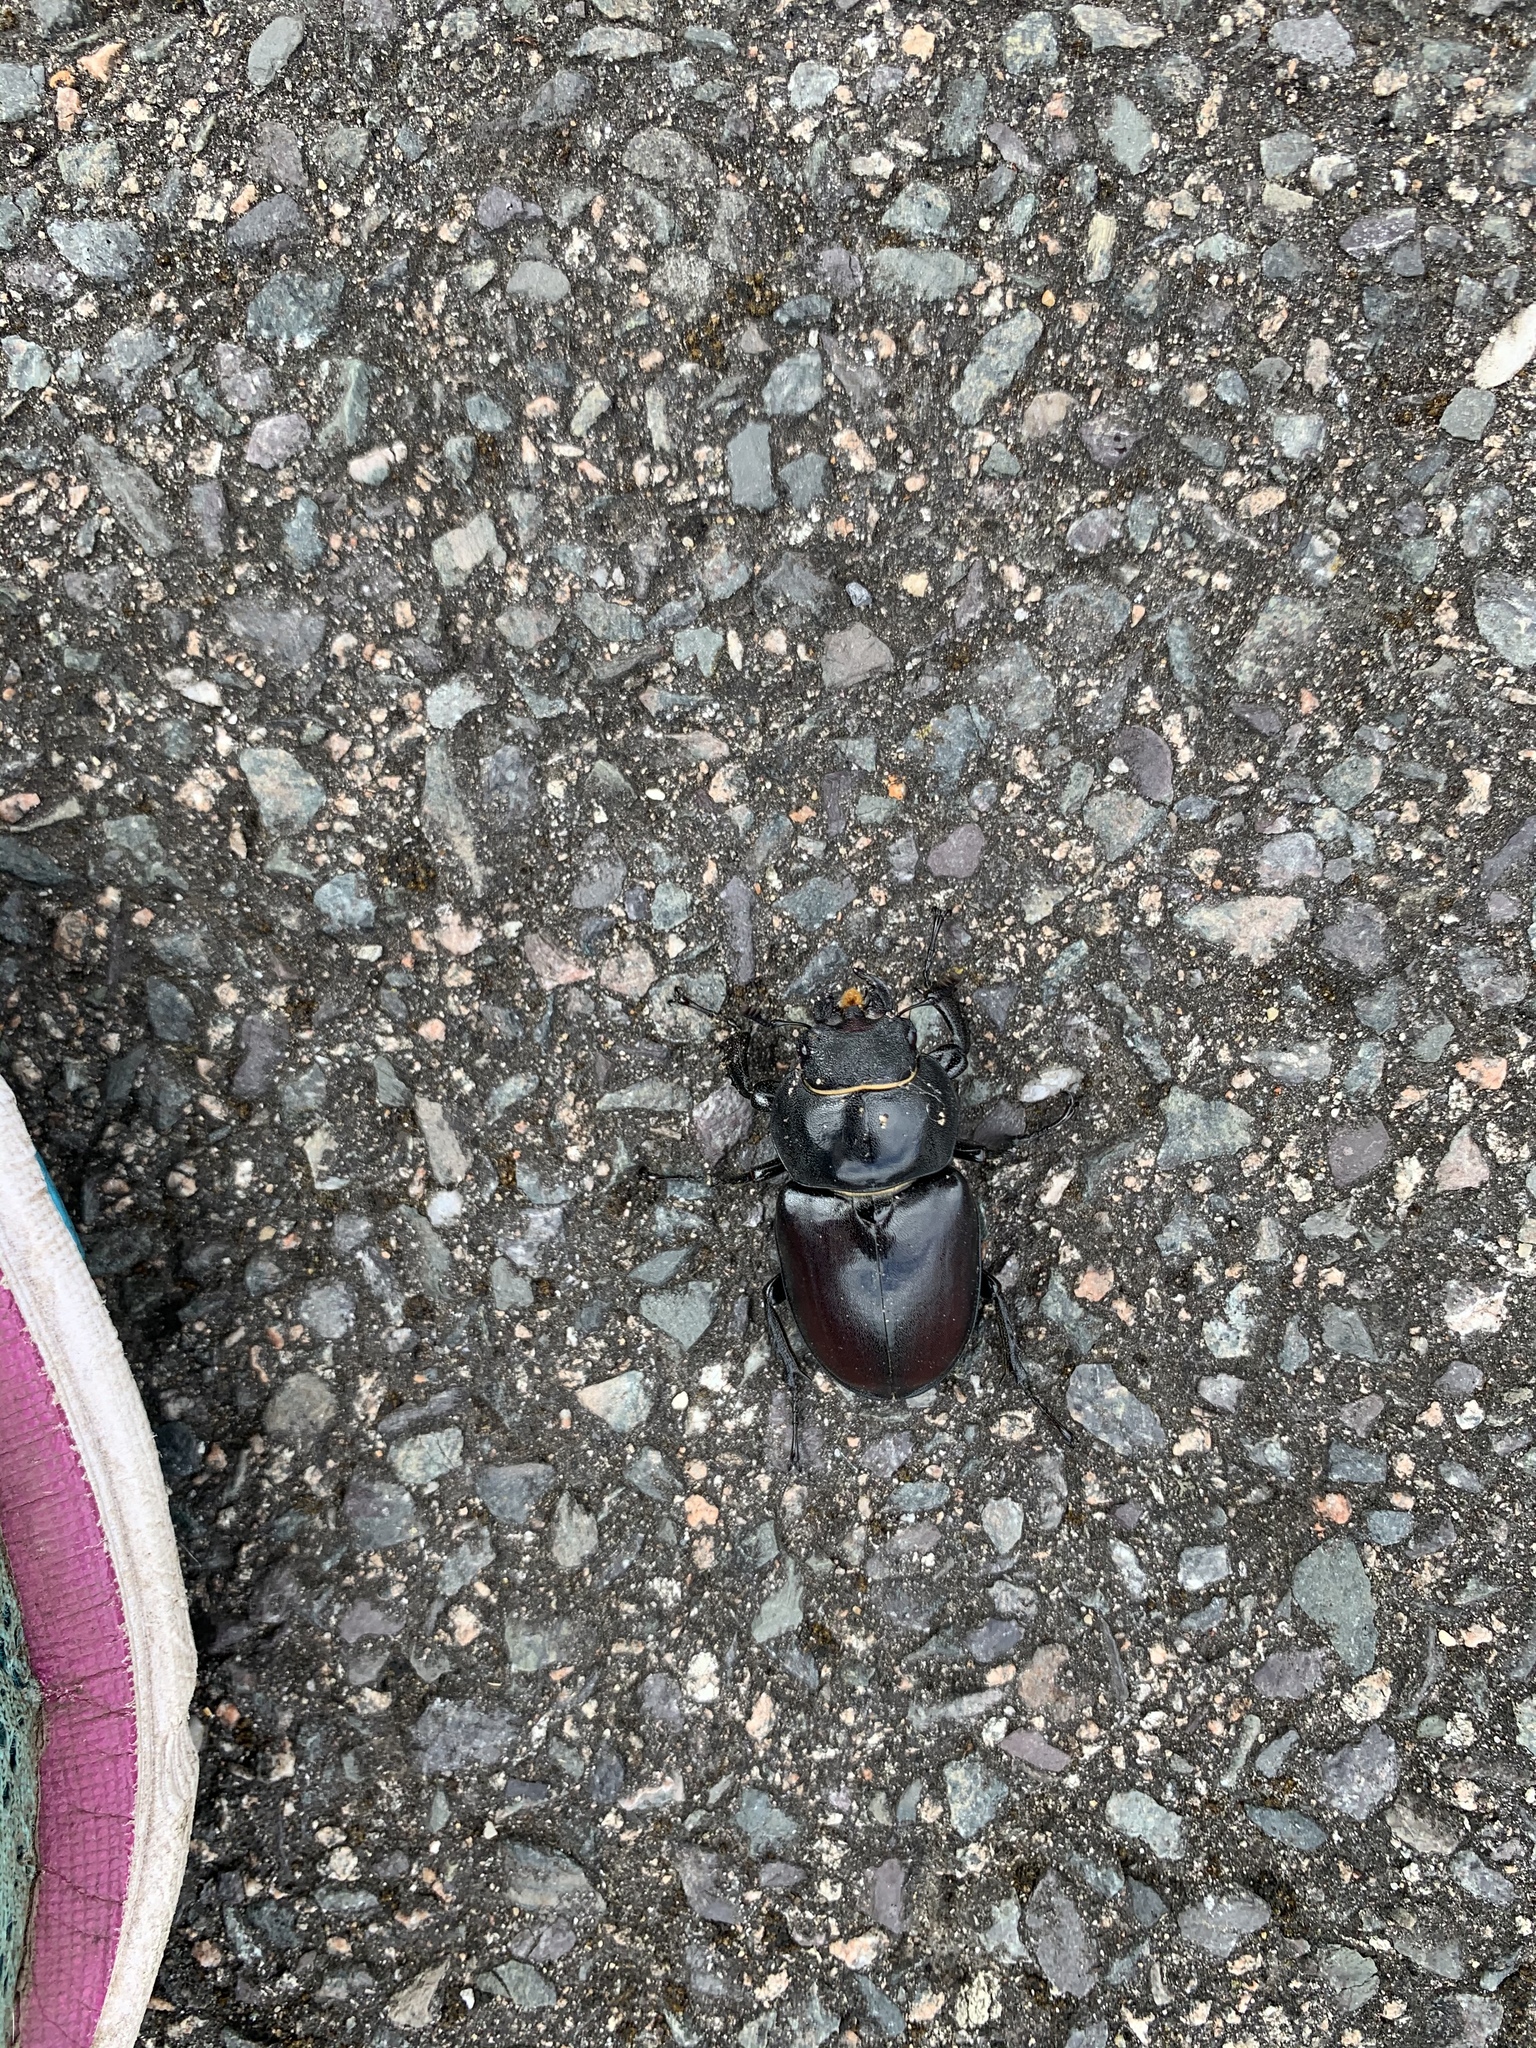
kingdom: Animalia
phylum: Arthropoda
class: Insecta
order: Coleoptera
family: Lucanidae
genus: Lucanus
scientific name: Lucanus cervus
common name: Stag beetle
